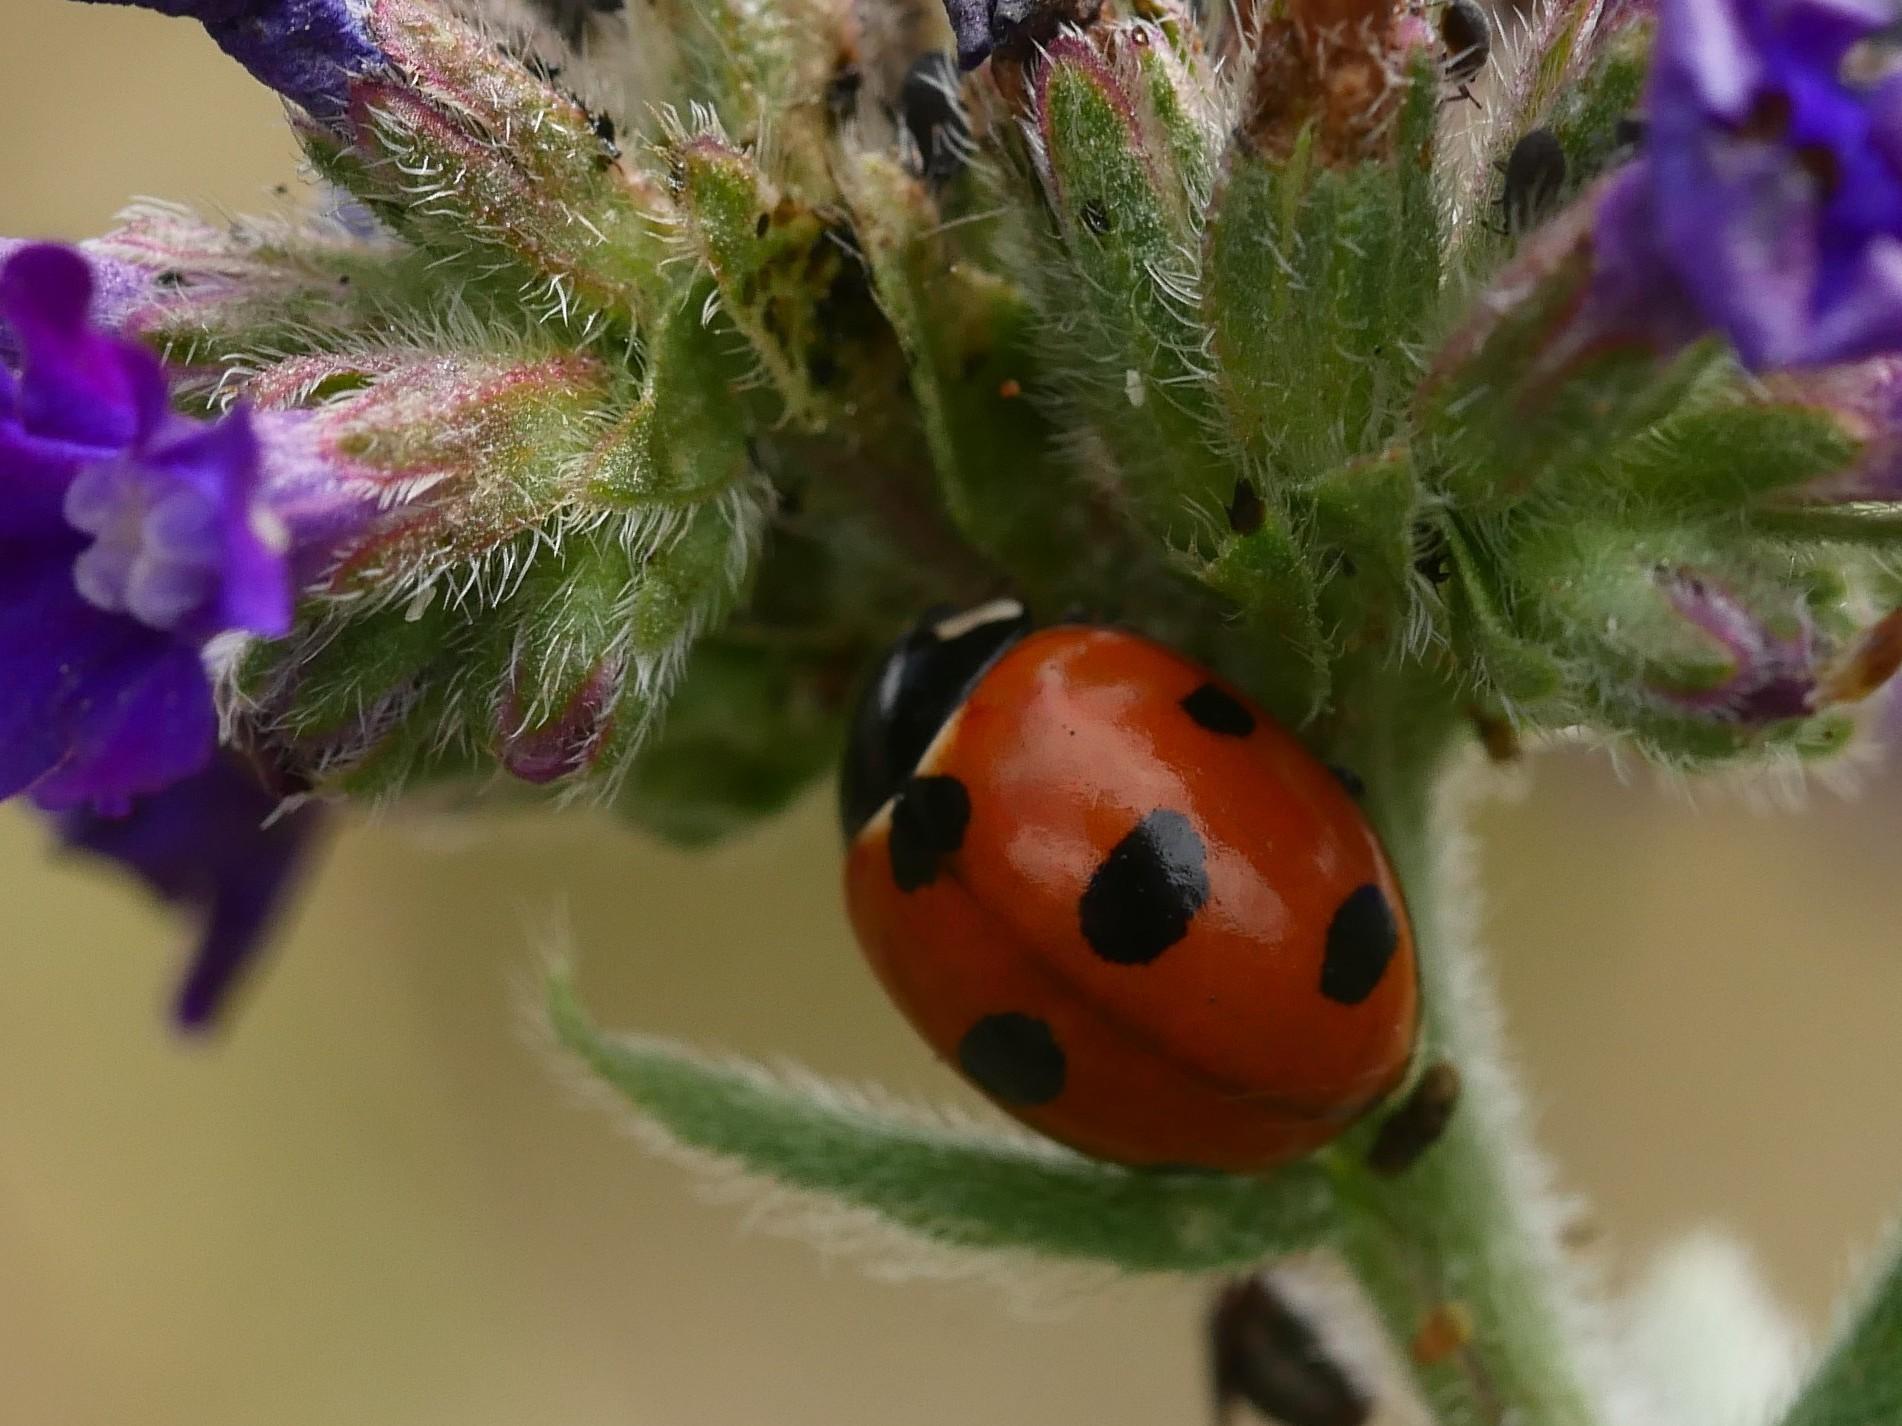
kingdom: Animalia
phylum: Arthropoda
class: Insecta
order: Coleoptera
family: Coccinellidae
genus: Coccinella
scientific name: Coccinella magnifica
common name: Scarce 7-spot ladybird
